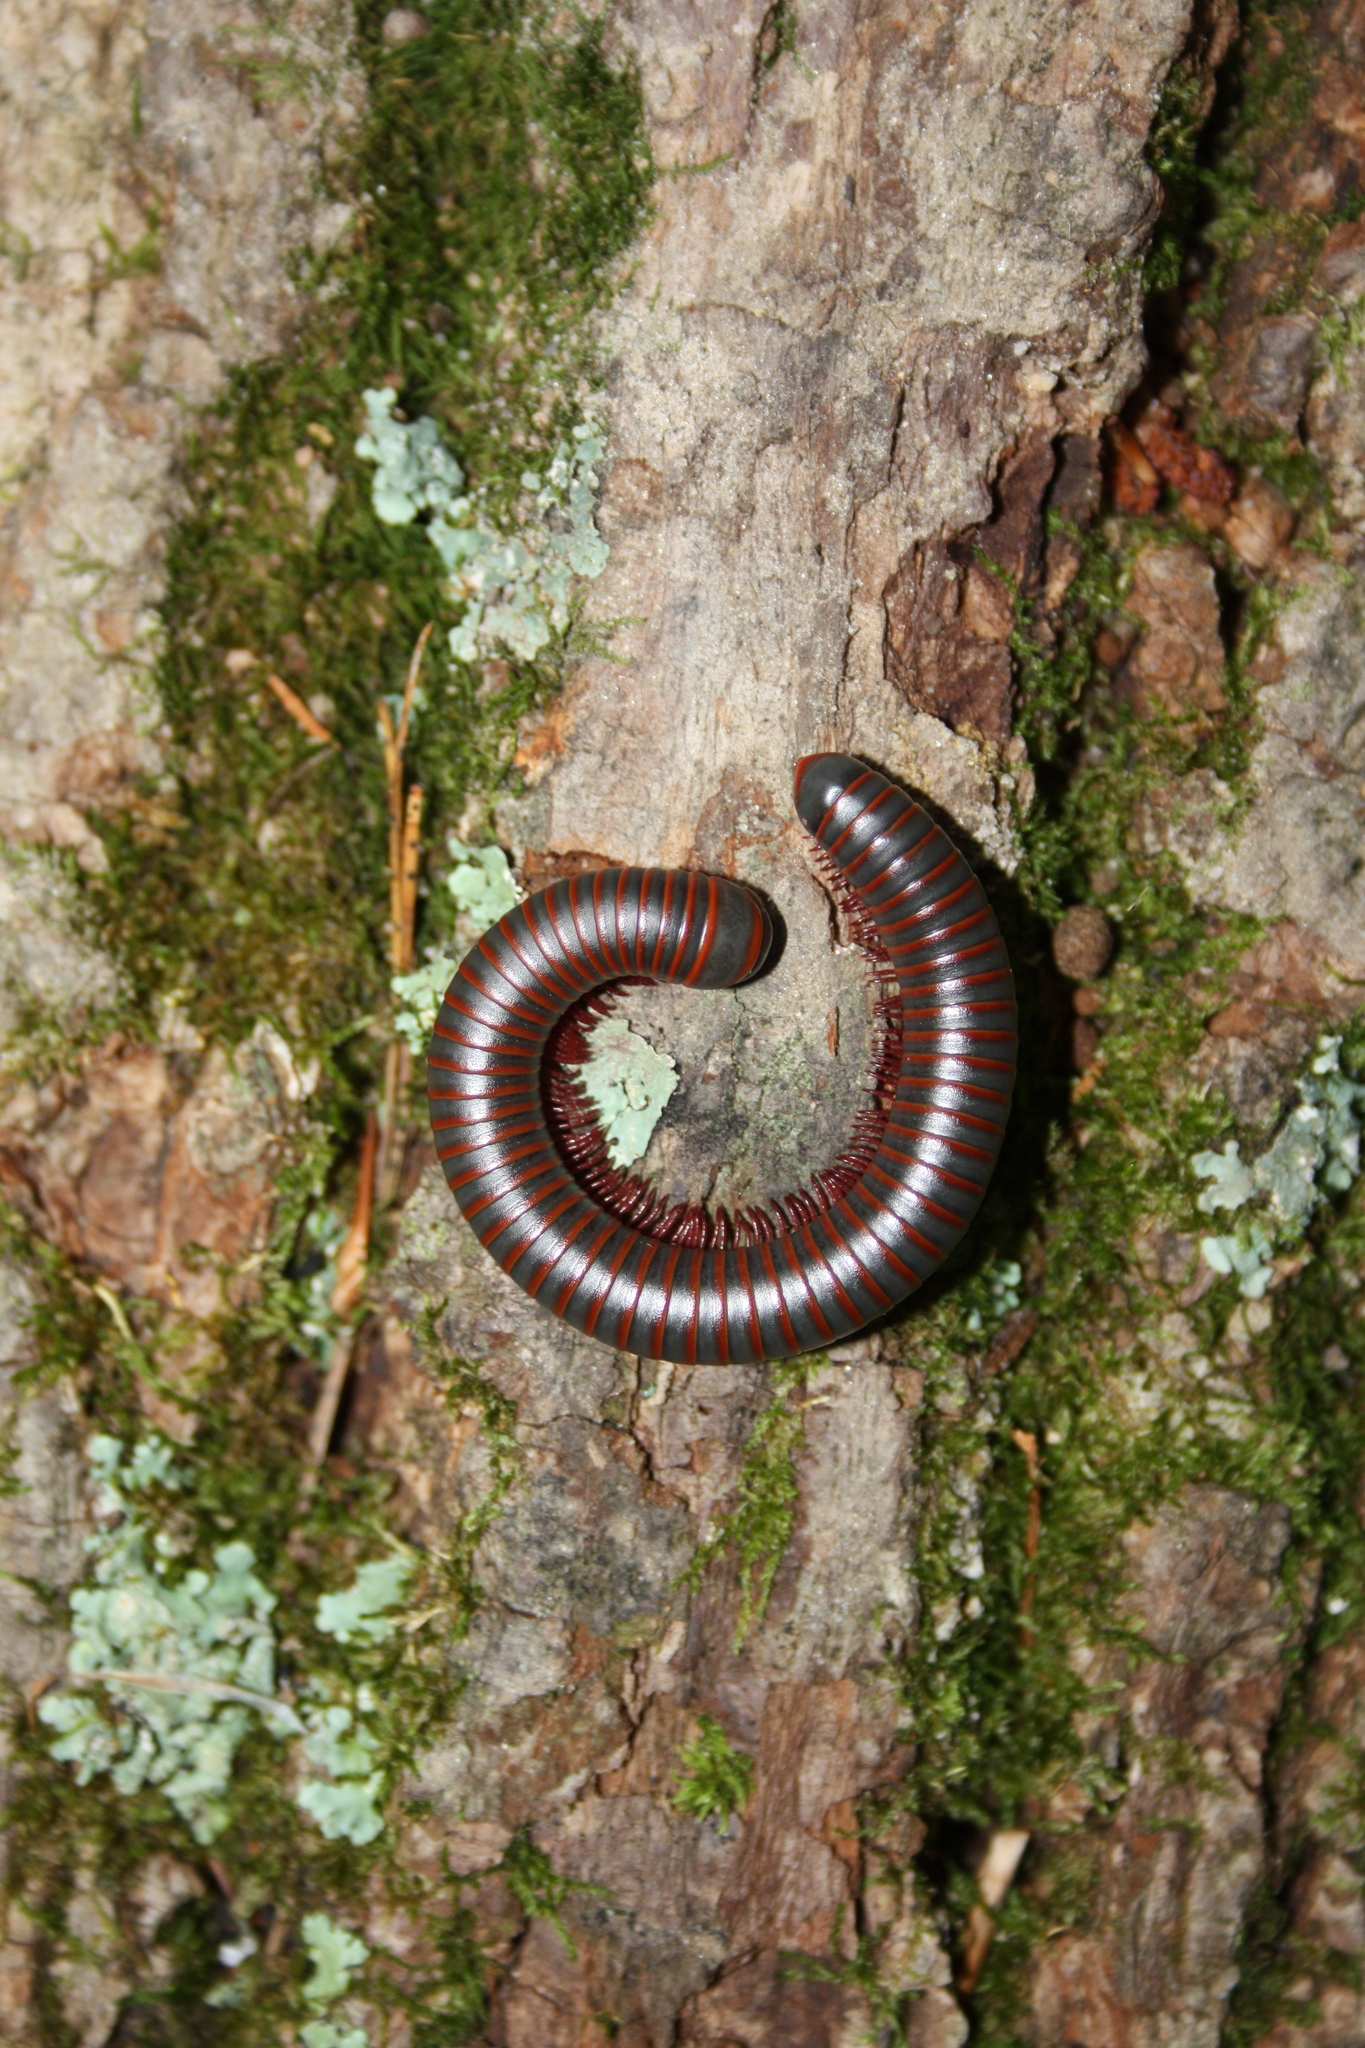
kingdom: Animalia
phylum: Arthropoda
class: Diplopoda
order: Spirobolida
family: Spirobolidae
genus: Narceus
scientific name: Narceus
